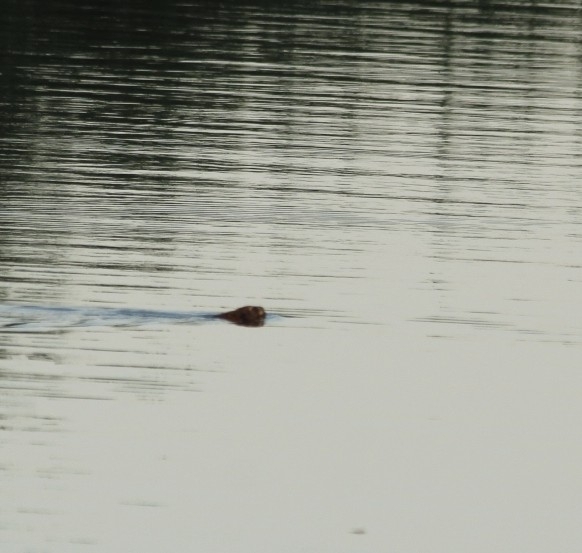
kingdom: Animalia
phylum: Chordata
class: Mammalia
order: Rodentia
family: Cricetidae
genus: Ondatra
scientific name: Ondatra zibethicus
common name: Muskrat
